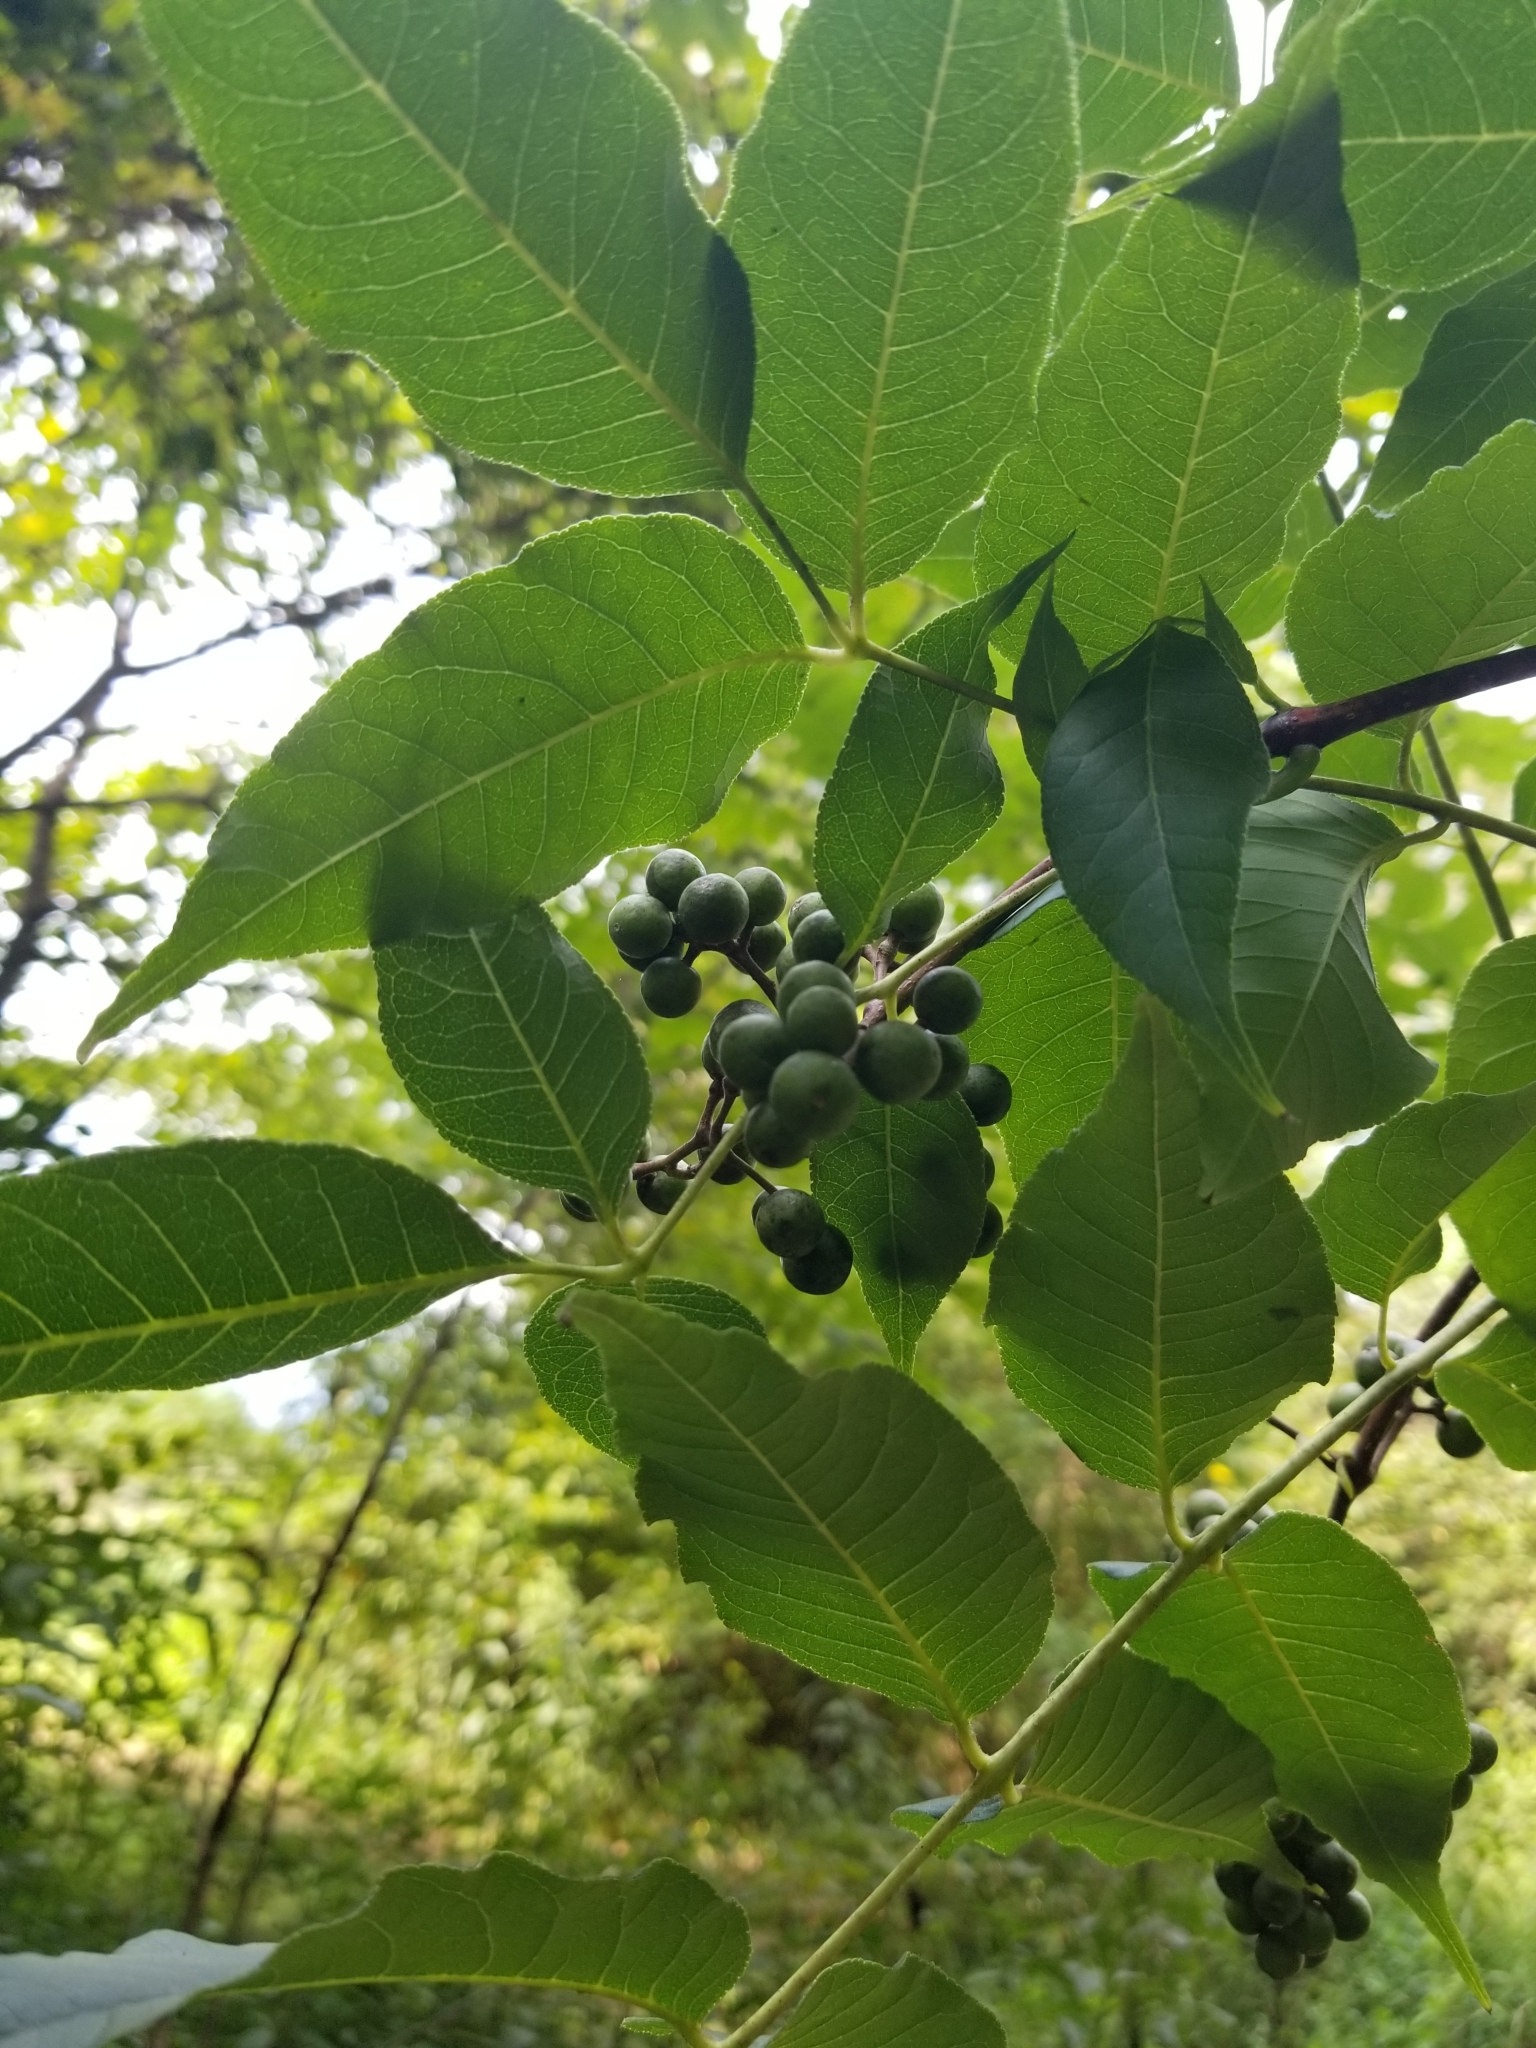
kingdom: Plantae
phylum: Tracheophyta
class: Magnoliopsida
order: Sapindales
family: Rutaceae
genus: Phellodendron
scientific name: Phellodendron amurense
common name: Amur corktree
